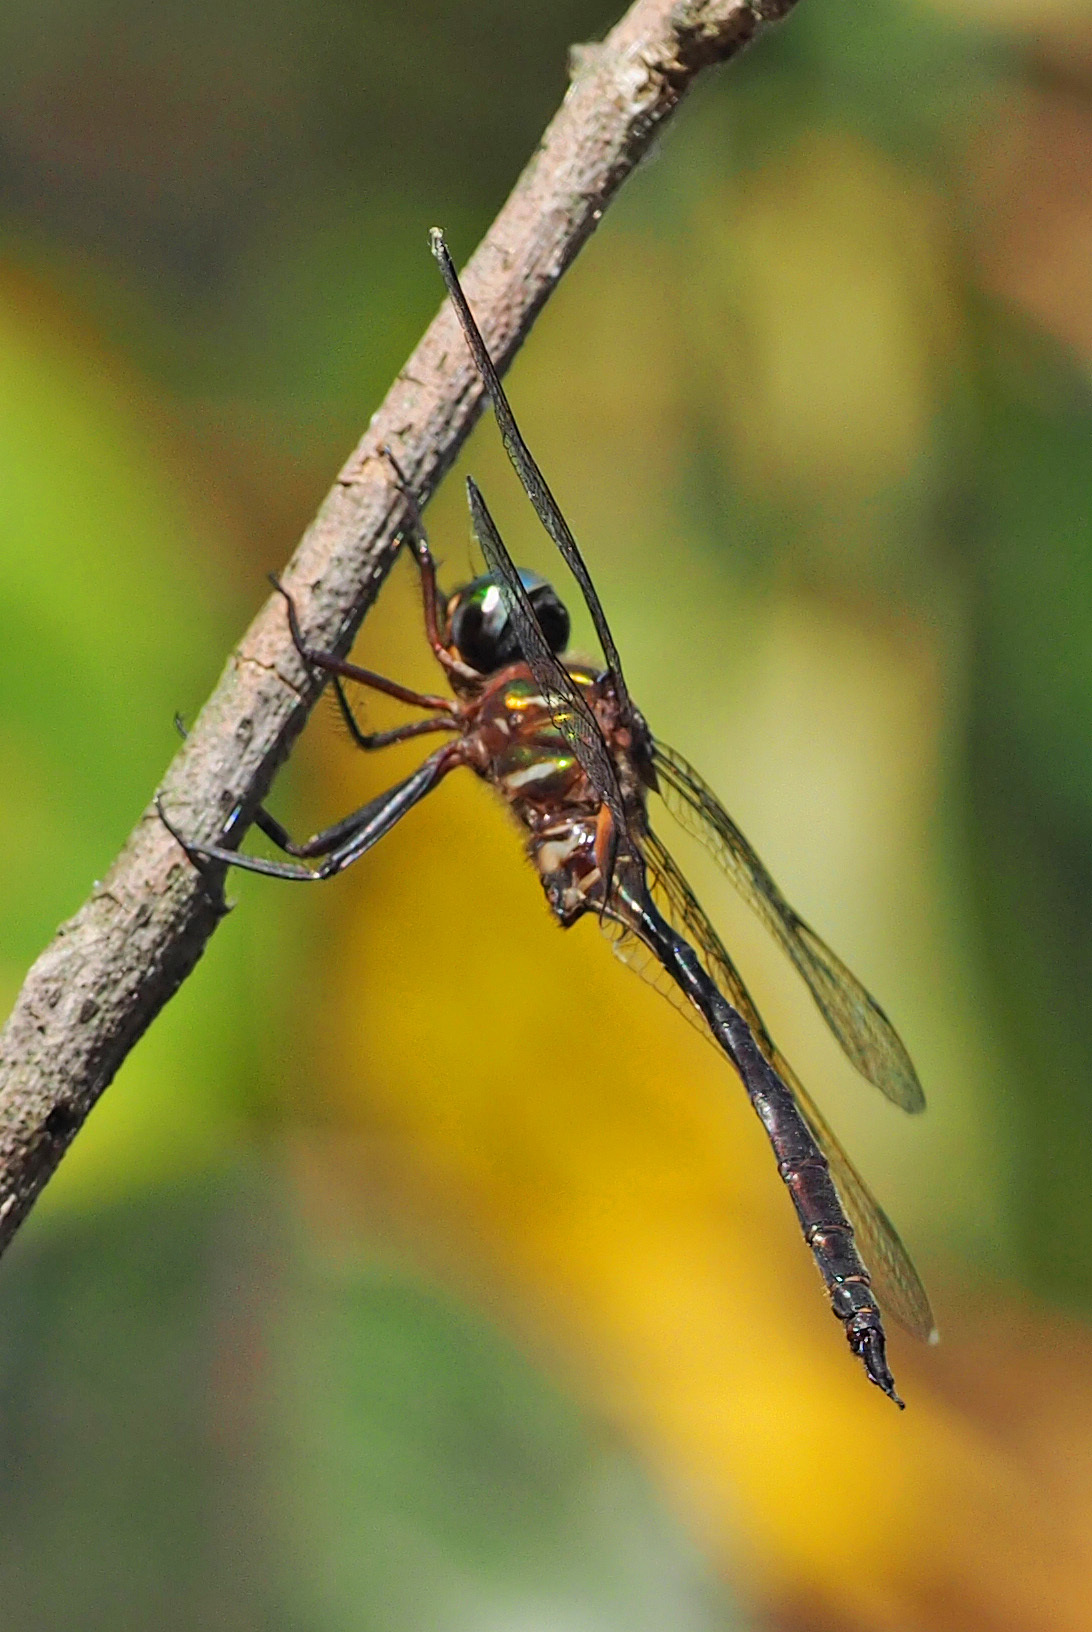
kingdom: Animalia
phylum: Arthropoda
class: Insecta
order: Odonata
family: Corduliidae
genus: Somatochlora
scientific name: Somatochlora filosa
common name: Fine-lined emerald
